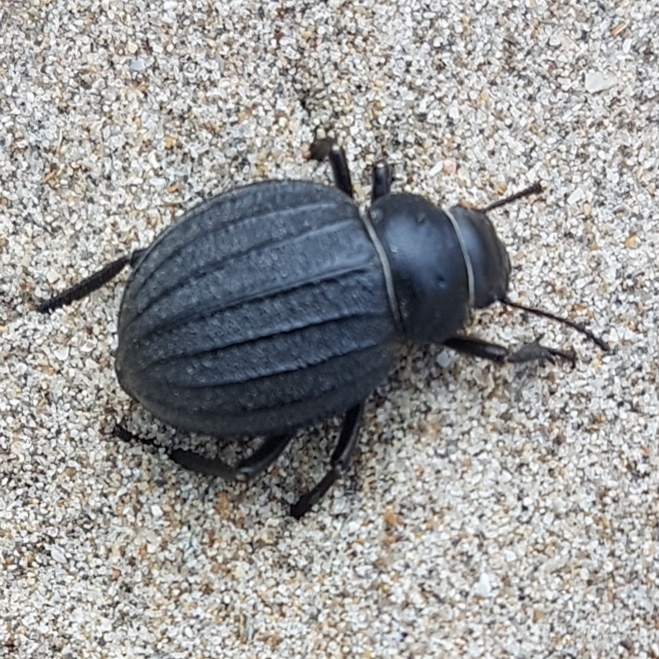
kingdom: Animalia
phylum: Arthropoda
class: Insecta
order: Coleoptera
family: Tenebrionidae
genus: Pimelia
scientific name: Pimelia muricata
